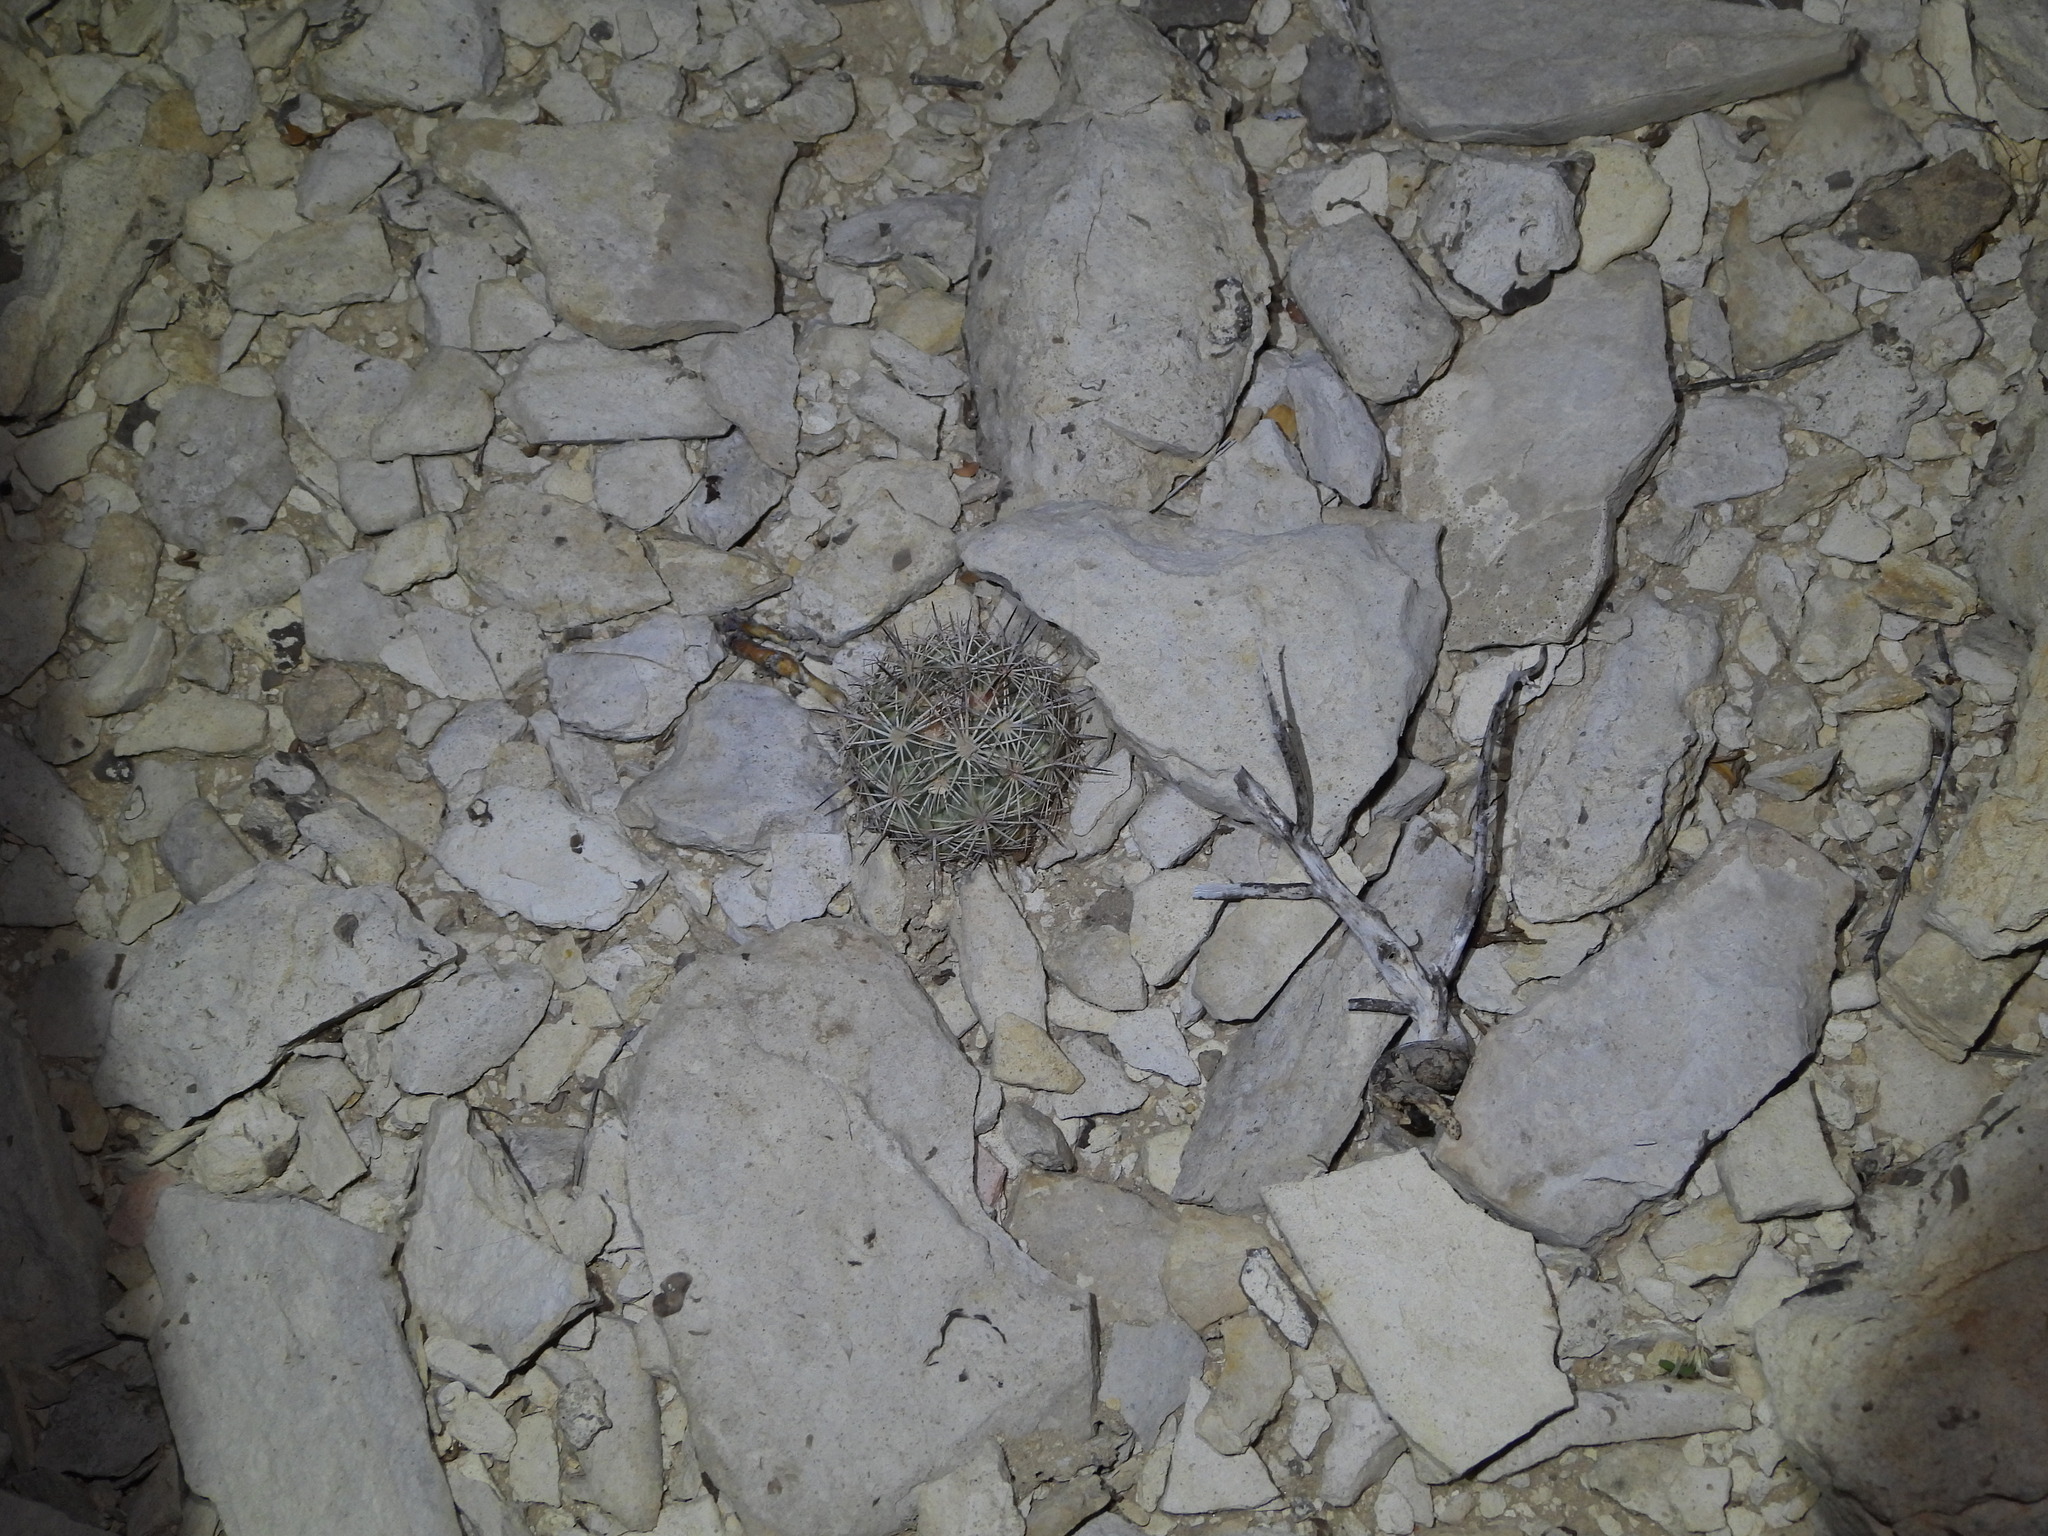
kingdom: Plantae
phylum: Tracheophyta
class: Magnoliopsida
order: Caryophyllales
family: Cactaceae
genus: Coryphantha
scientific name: Coryphantha echinus
